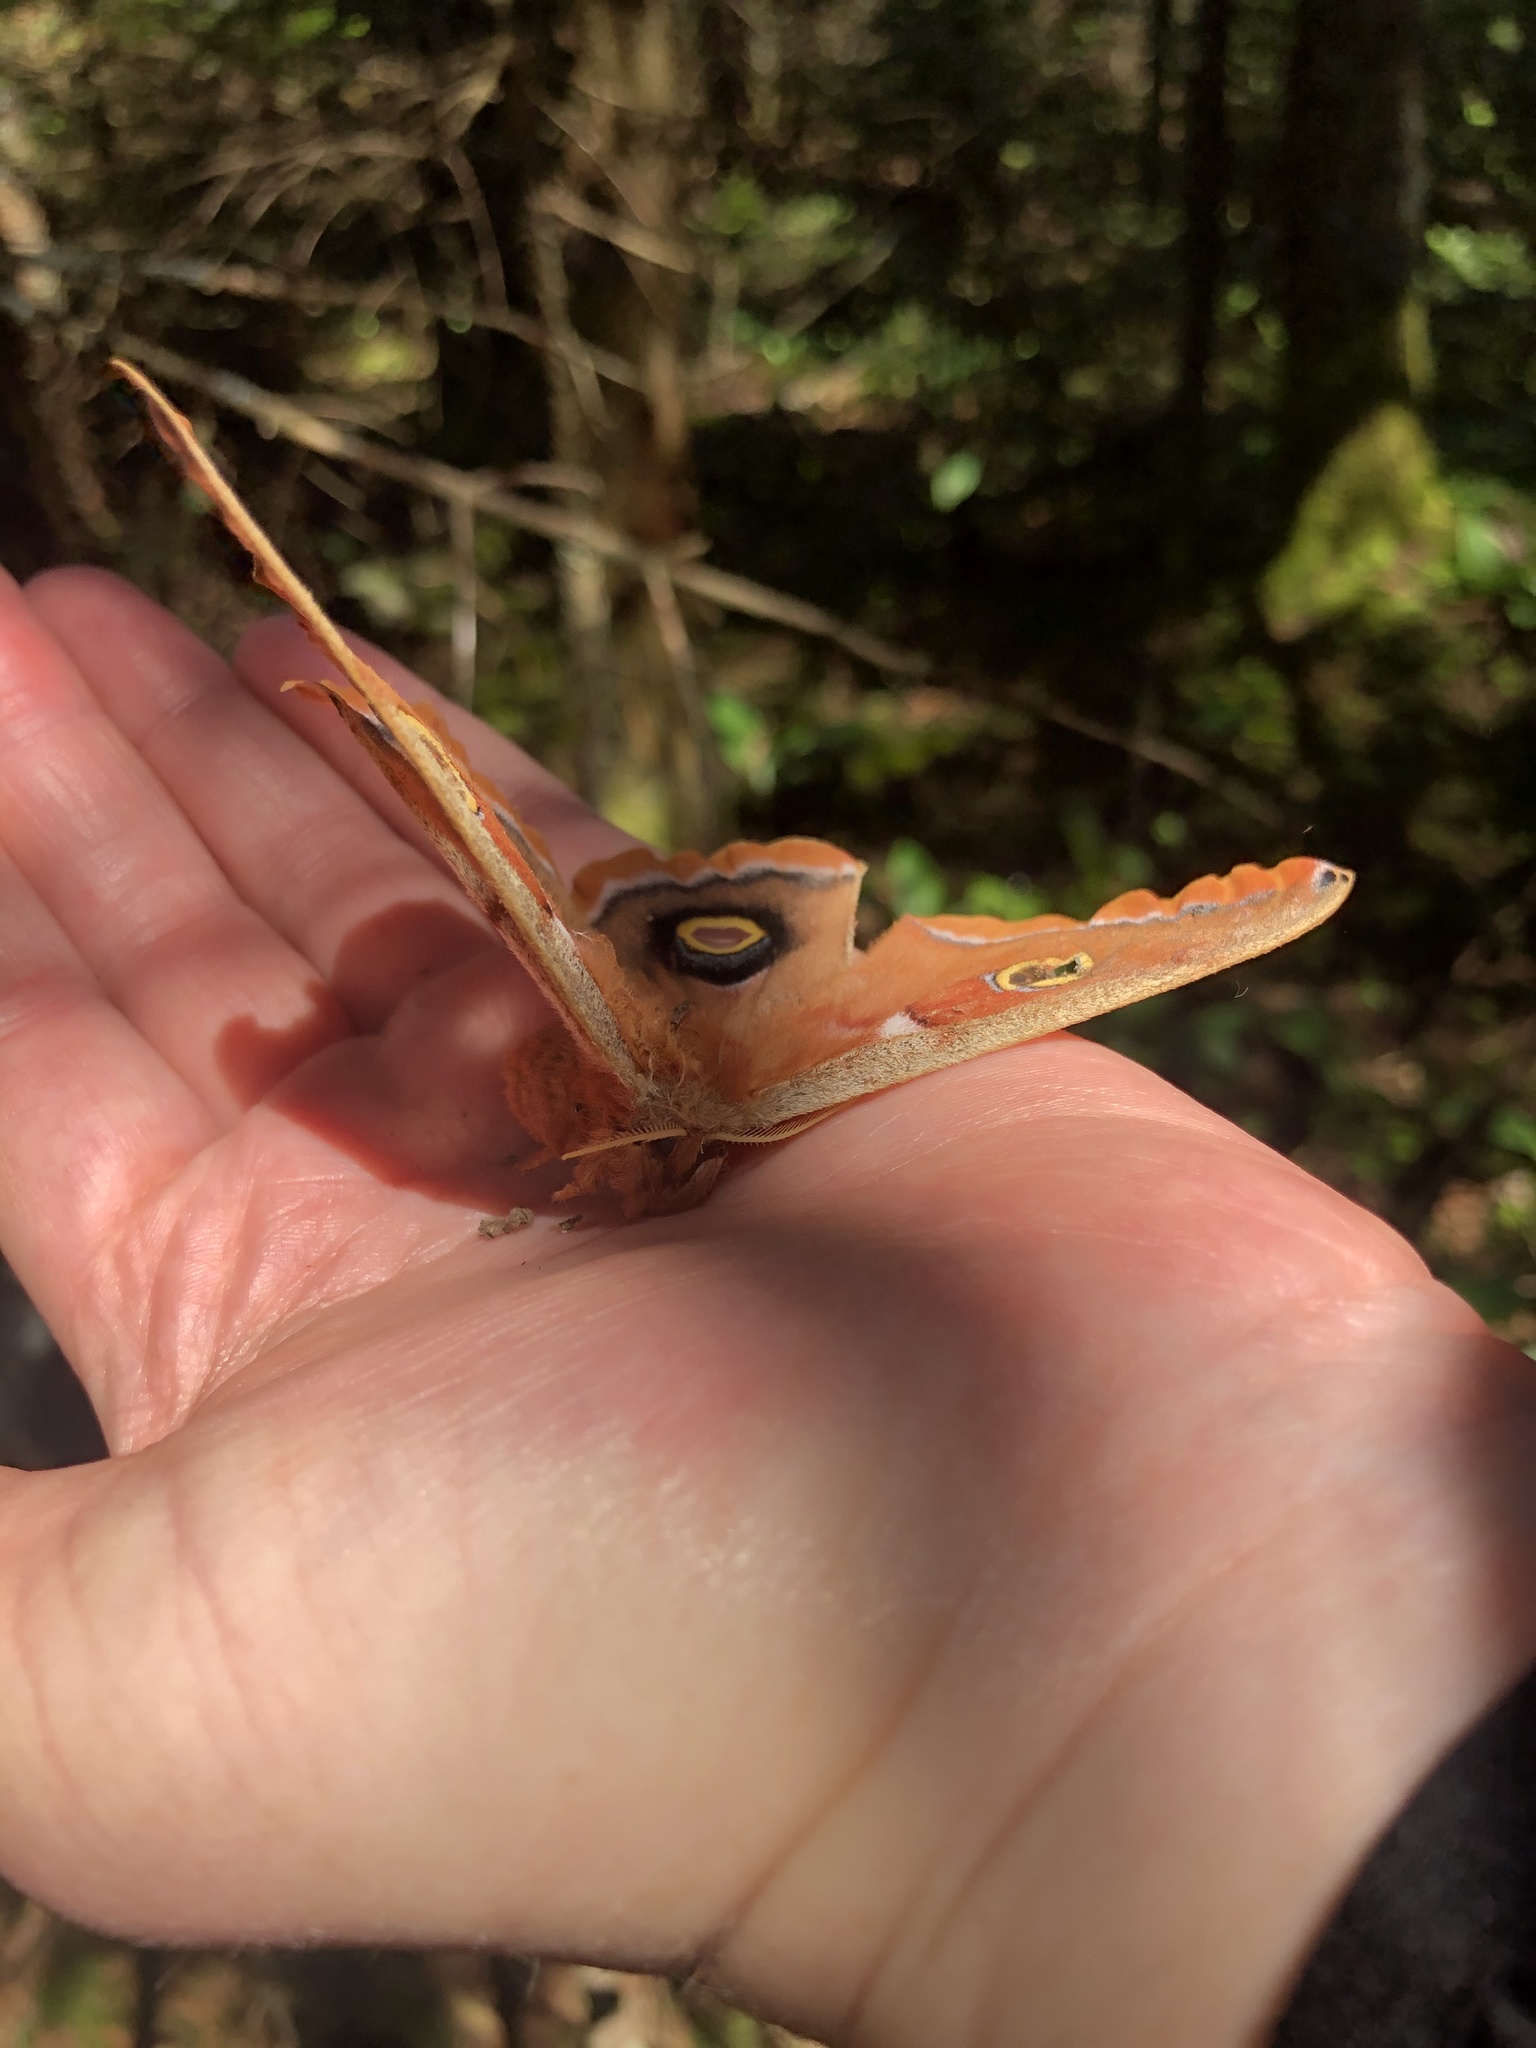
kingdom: Animalia
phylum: Arthropoda
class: Insecta
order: Lepidoptera
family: Saturniidae
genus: Antheraea
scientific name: Antheraea polyphemus
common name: Polyphemus moth
